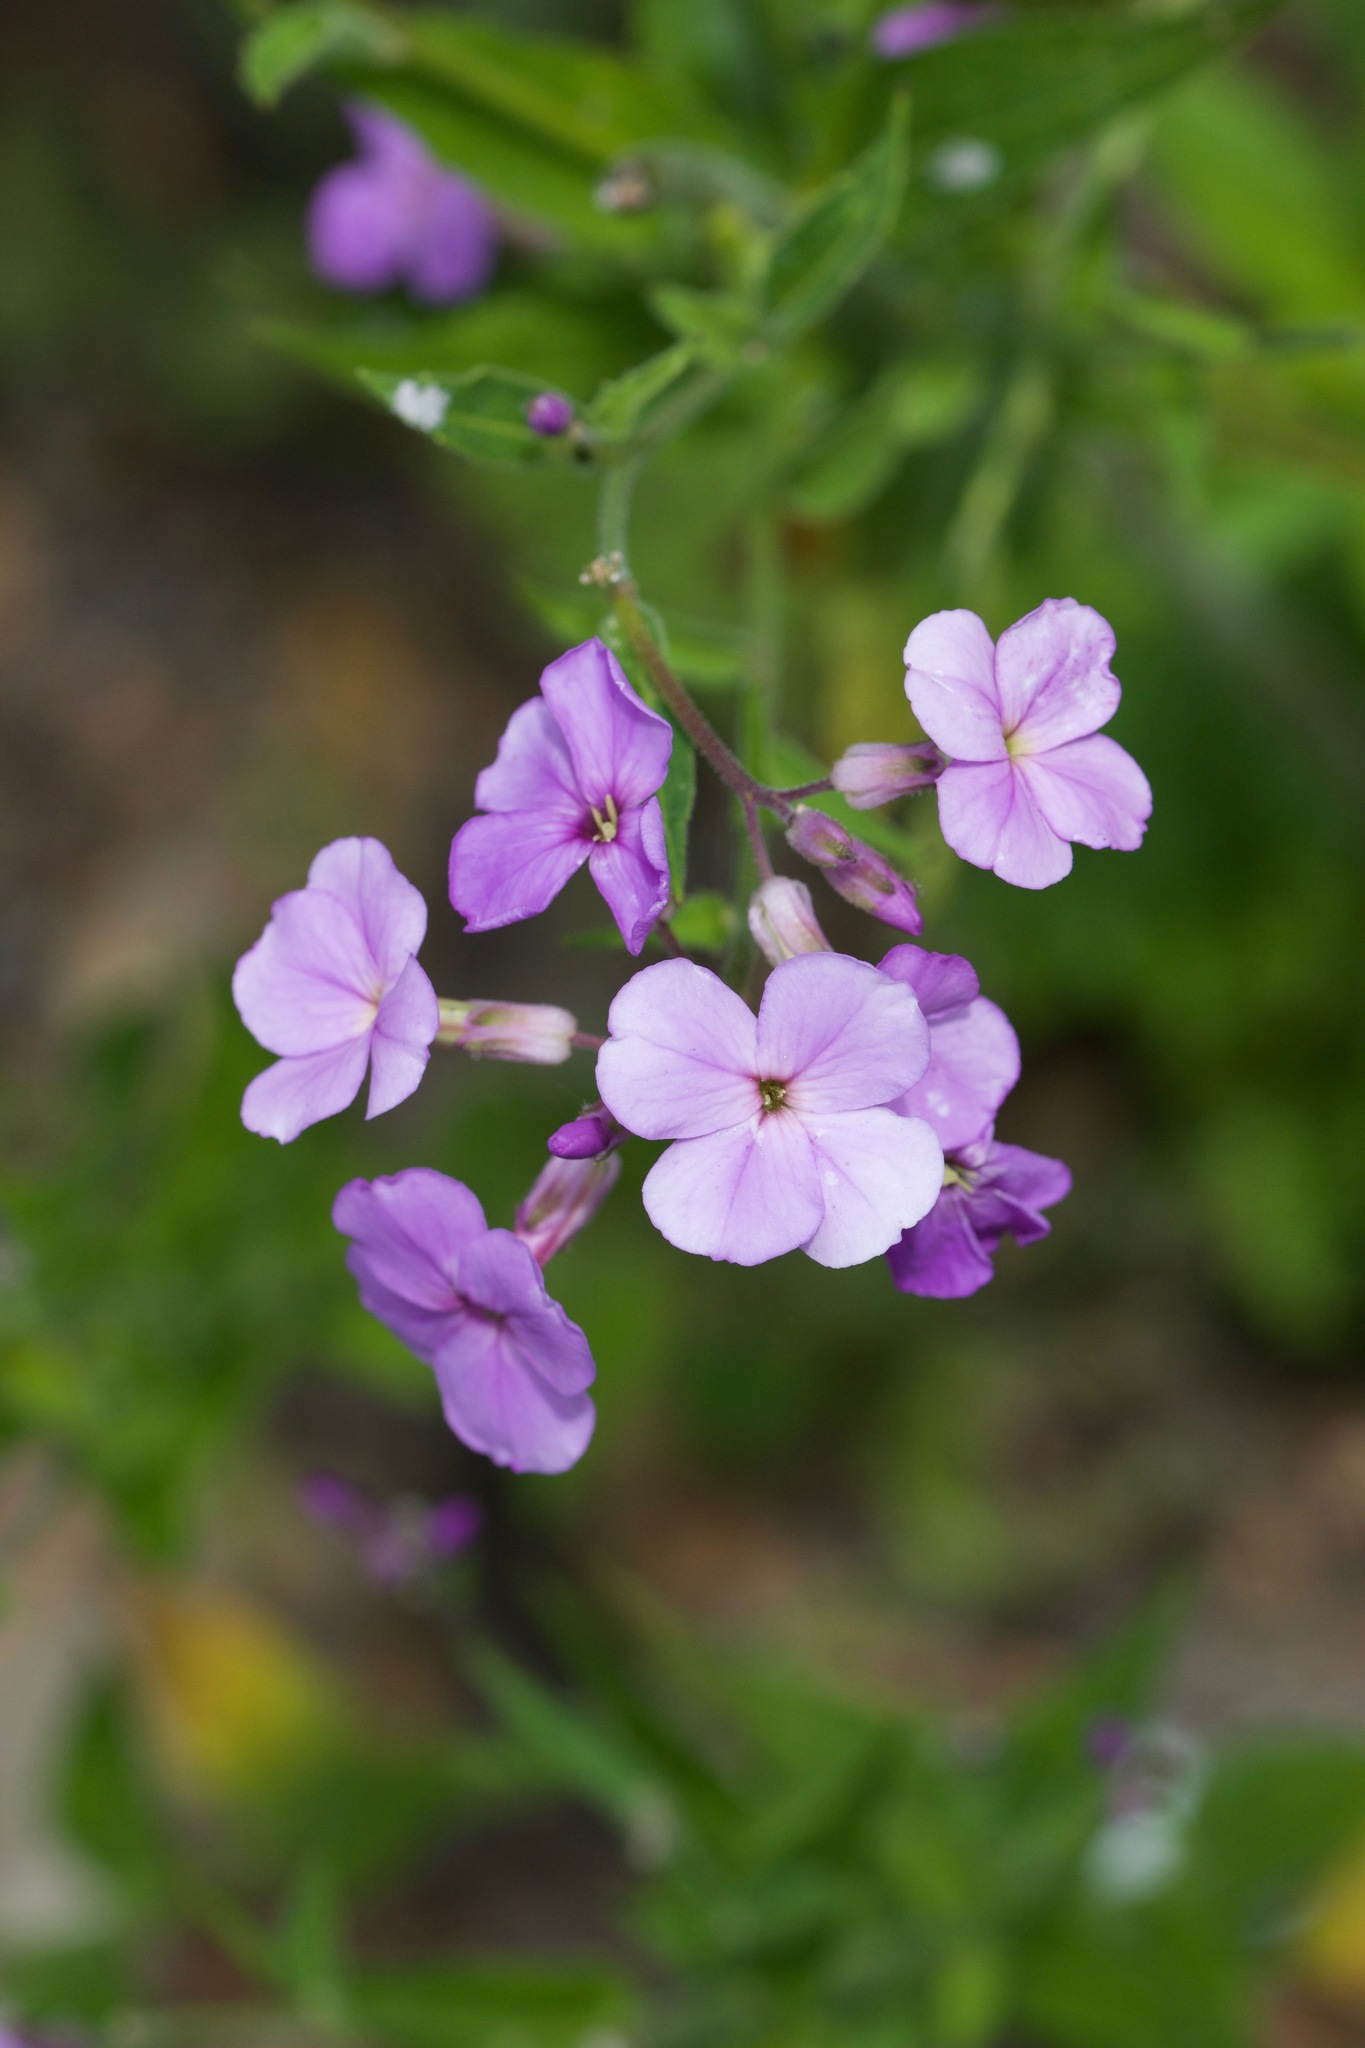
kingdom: Plantae
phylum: Tracheophyta
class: Magnoliopsida
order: Brassicales
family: Brassicaceae
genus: Hesperis
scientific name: Hesperis matronalis
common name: Dame's-violet
